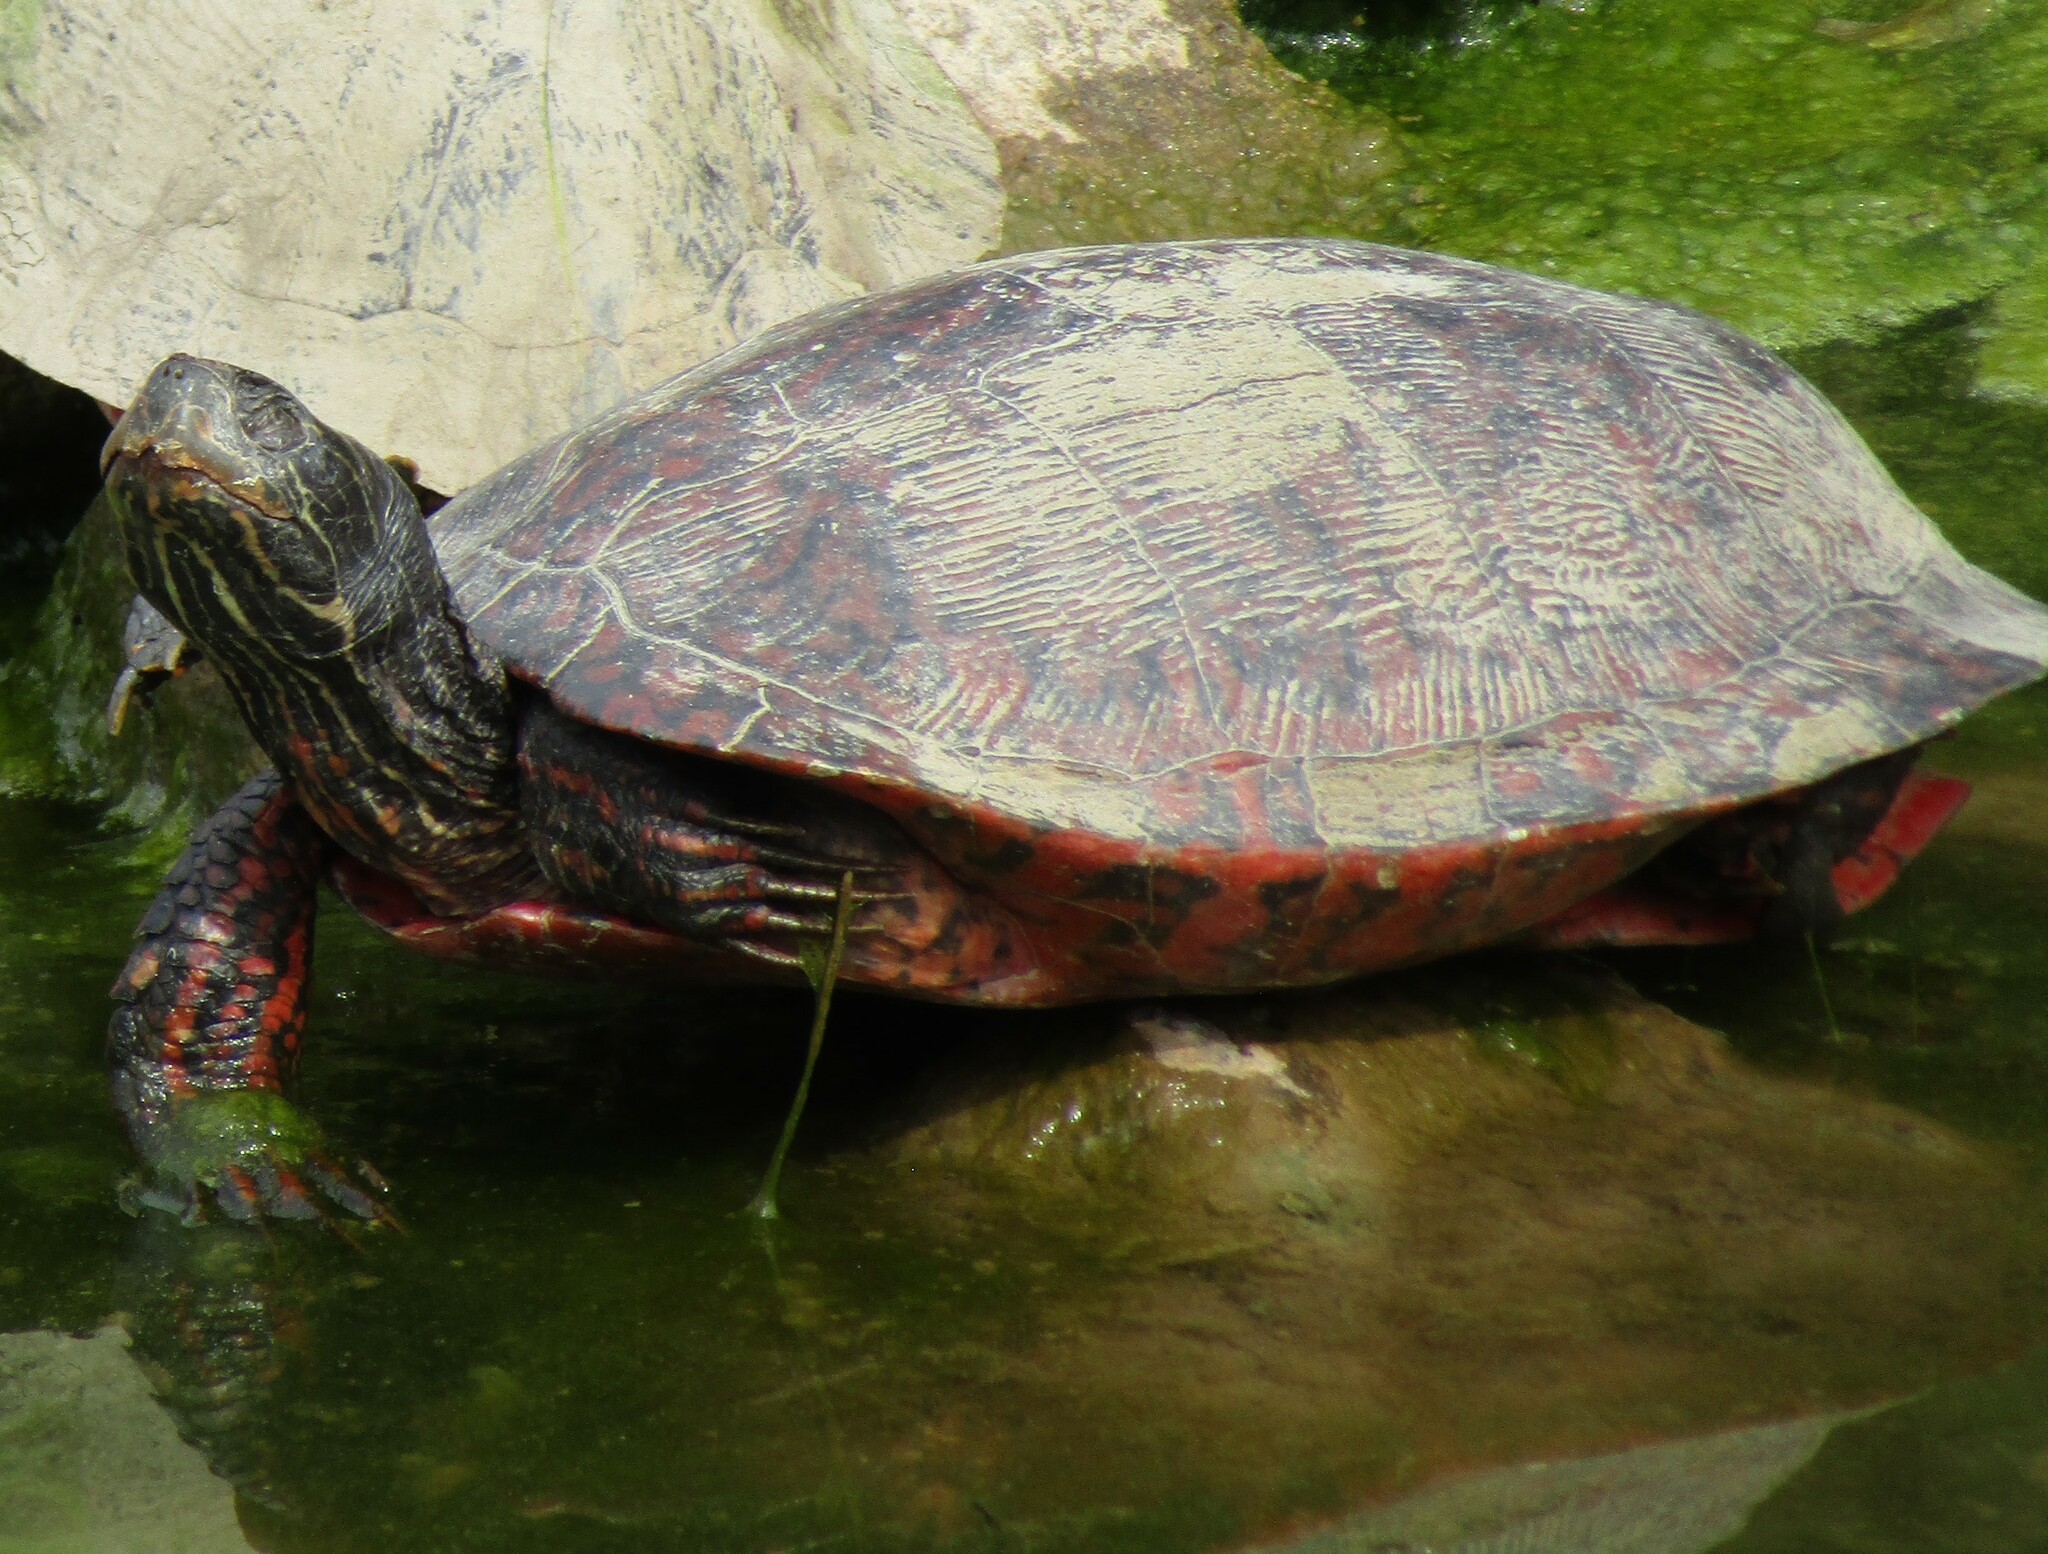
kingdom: Animalia
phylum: Chordata
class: Testudines
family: Emydidae
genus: Pseudemys
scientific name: Pseudemys rubriventris
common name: American red-bellied turtle
